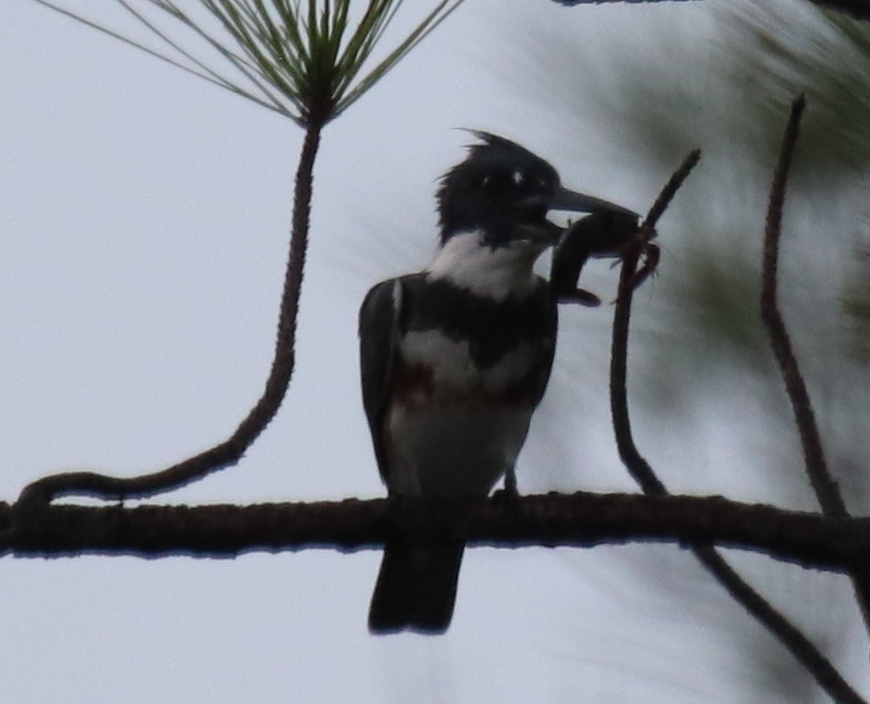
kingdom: Animalia
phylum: Chordata
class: Aves
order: Coraciiformes
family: Alcedinidae
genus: Megaceryle
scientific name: Megaceryle alcyon
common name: Belted kingfisher
